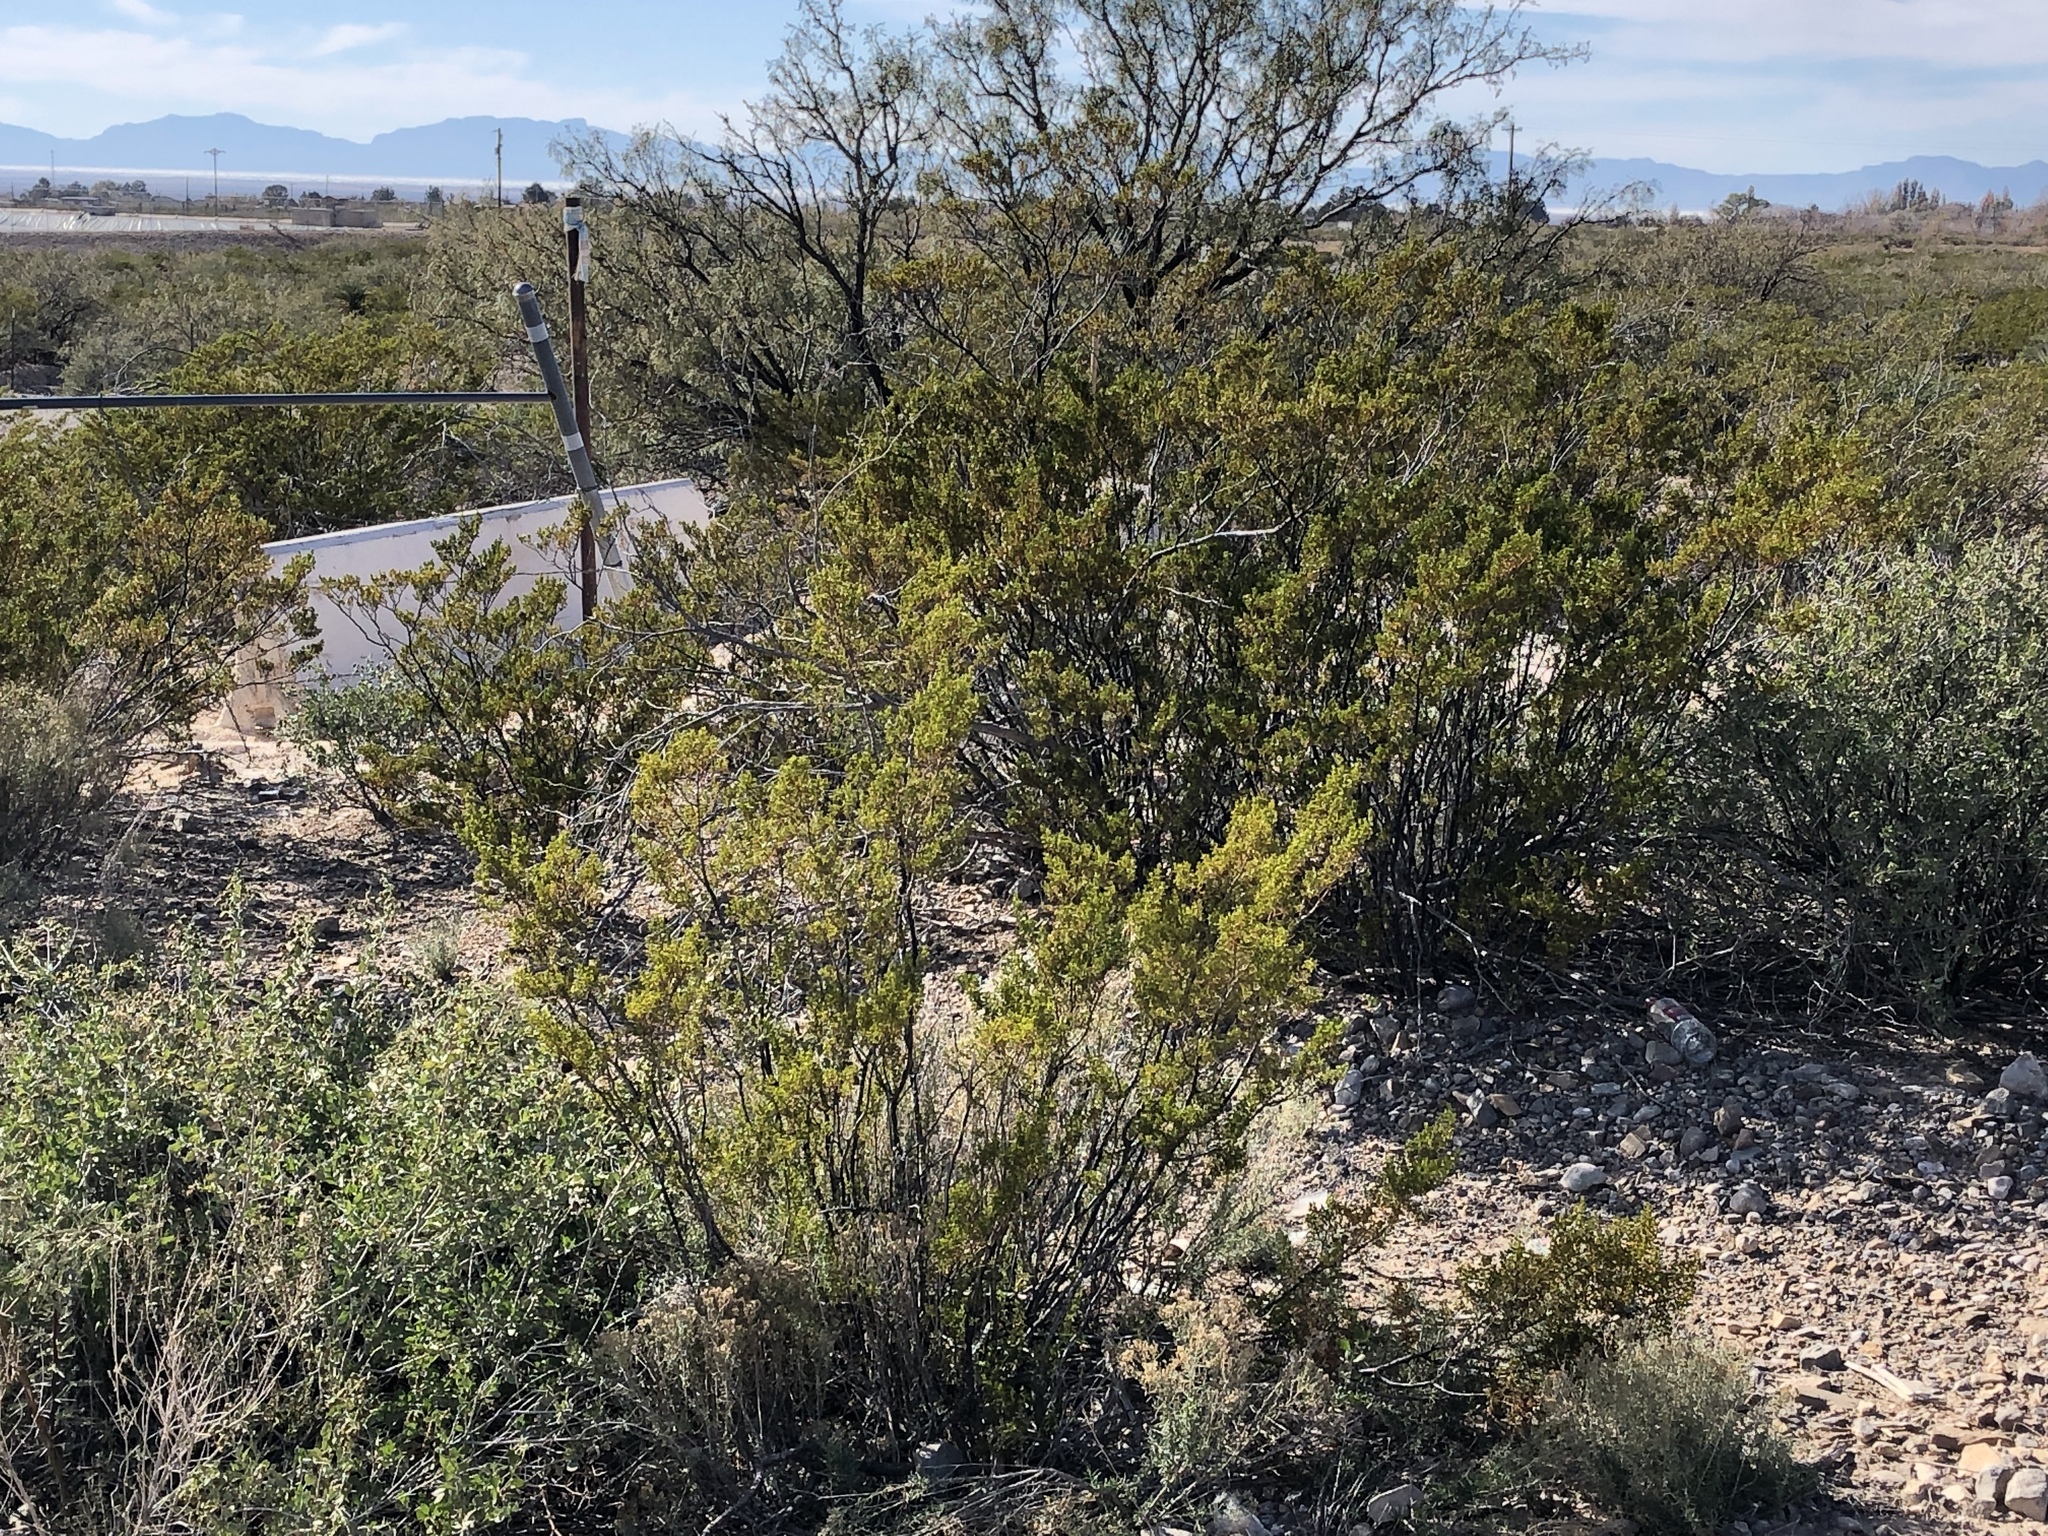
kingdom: Plantae
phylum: Tracheophyta
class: Magnoliopsida
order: Zygophyllales
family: Zygophyllaceae
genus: Larrea
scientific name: Larrea tridentata
